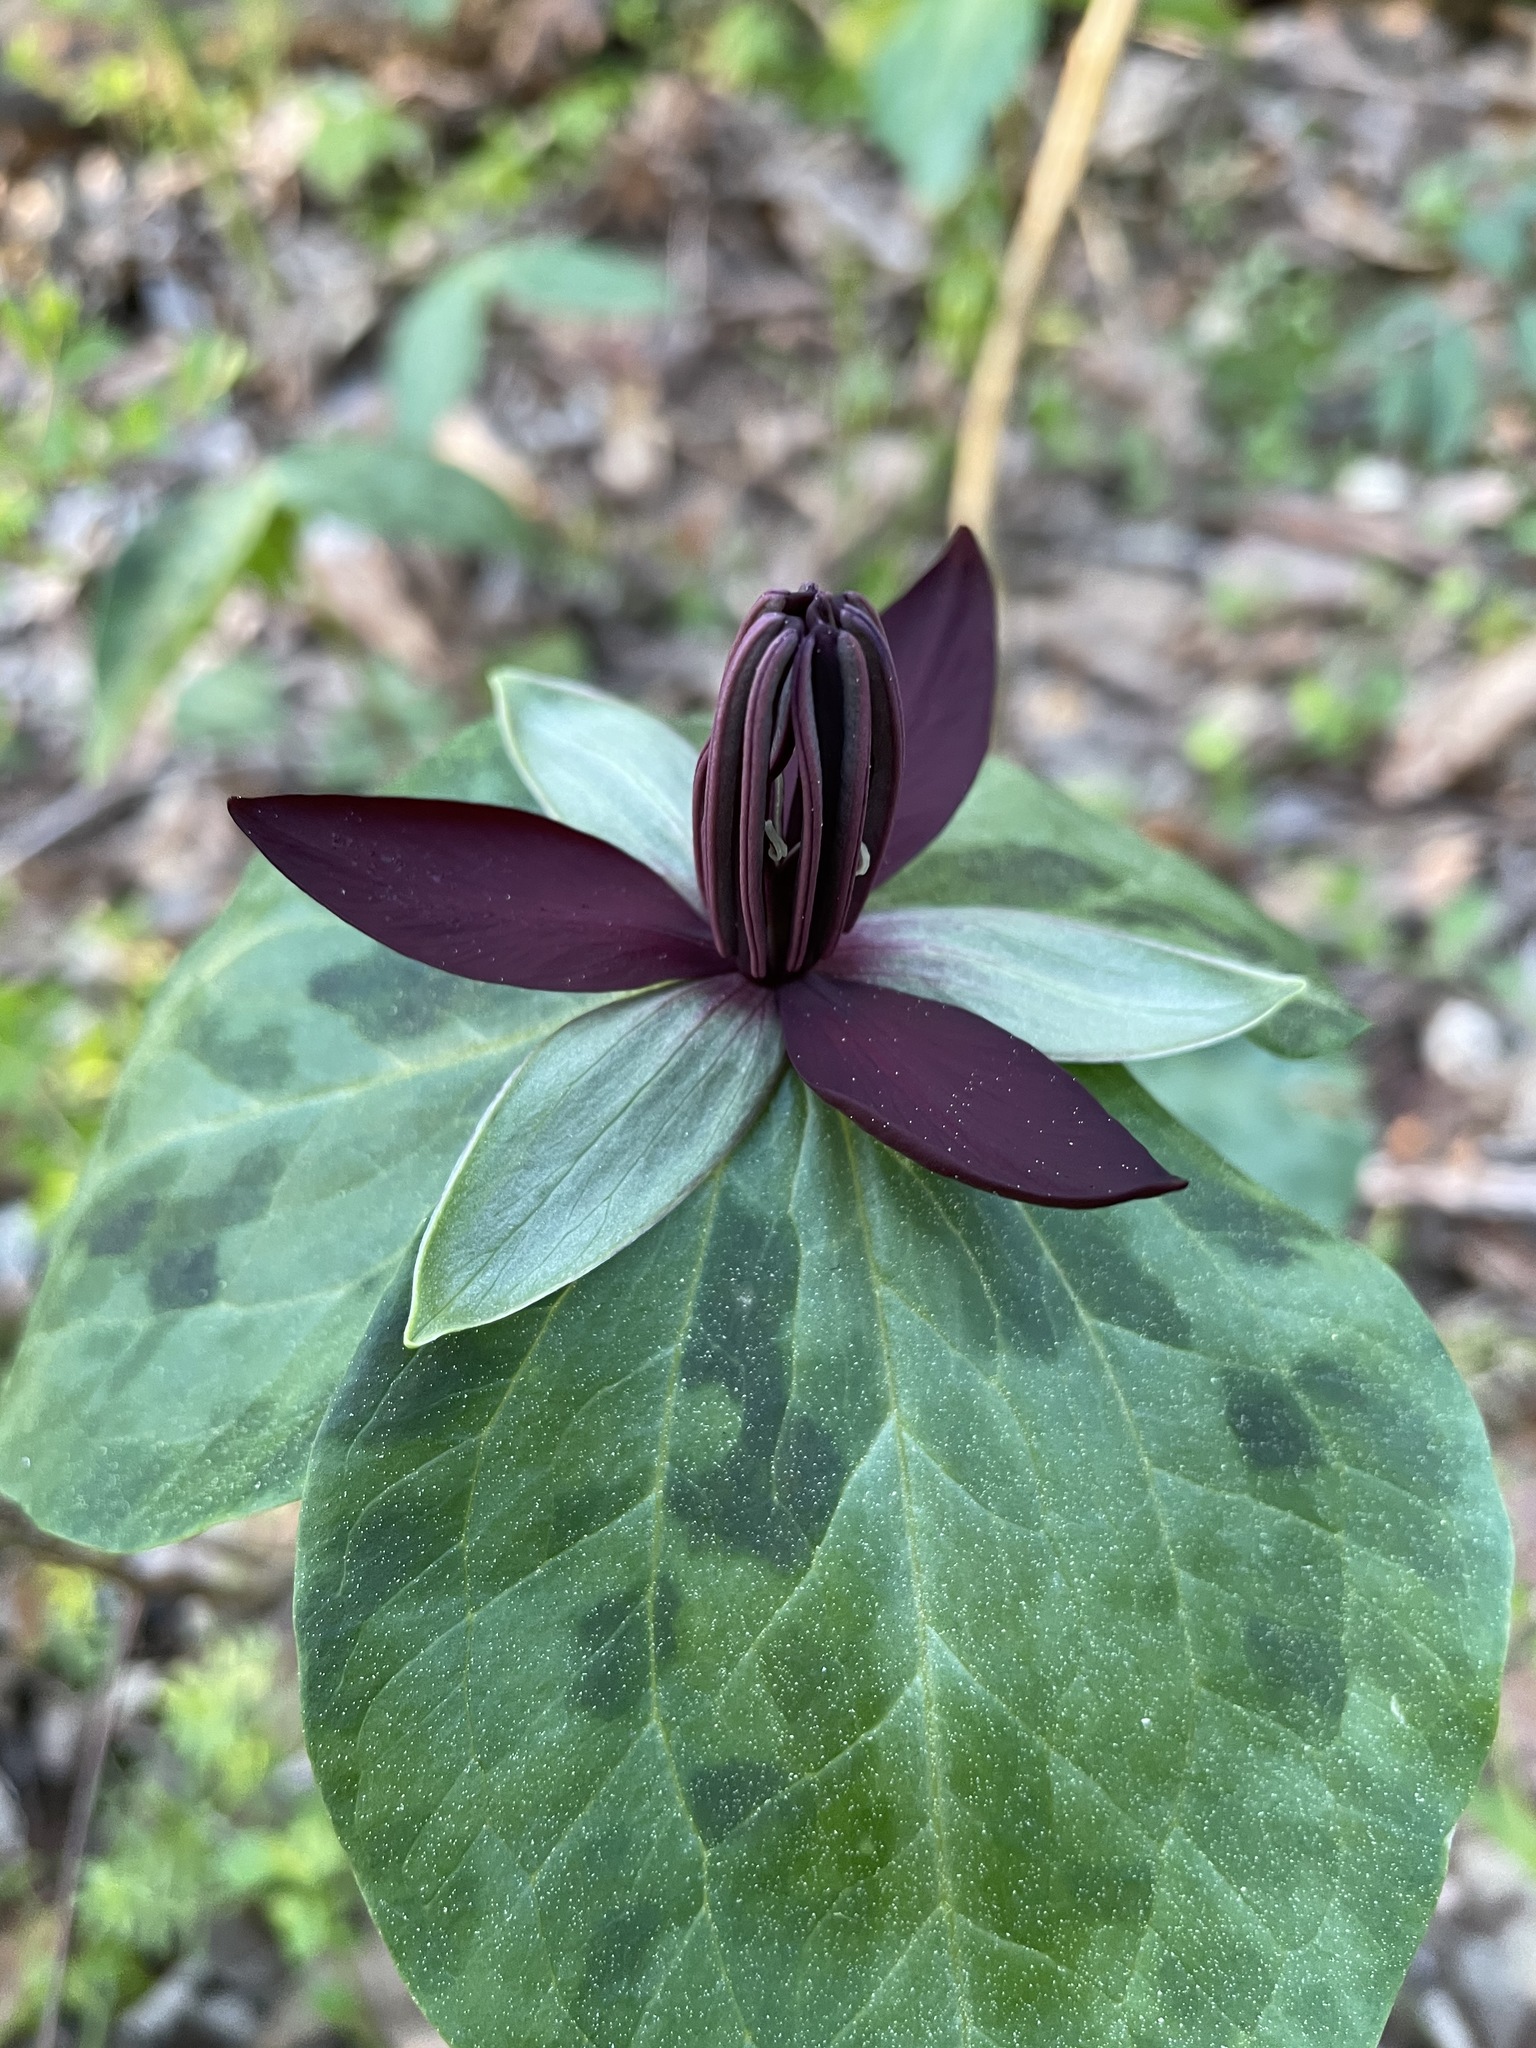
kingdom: Plantae
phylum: Tracheophyta
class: Liliopsida
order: Liliales
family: Melanthiaceae
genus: Trillium
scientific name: Trillium stamineum
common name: Blue ridge wakerobin
